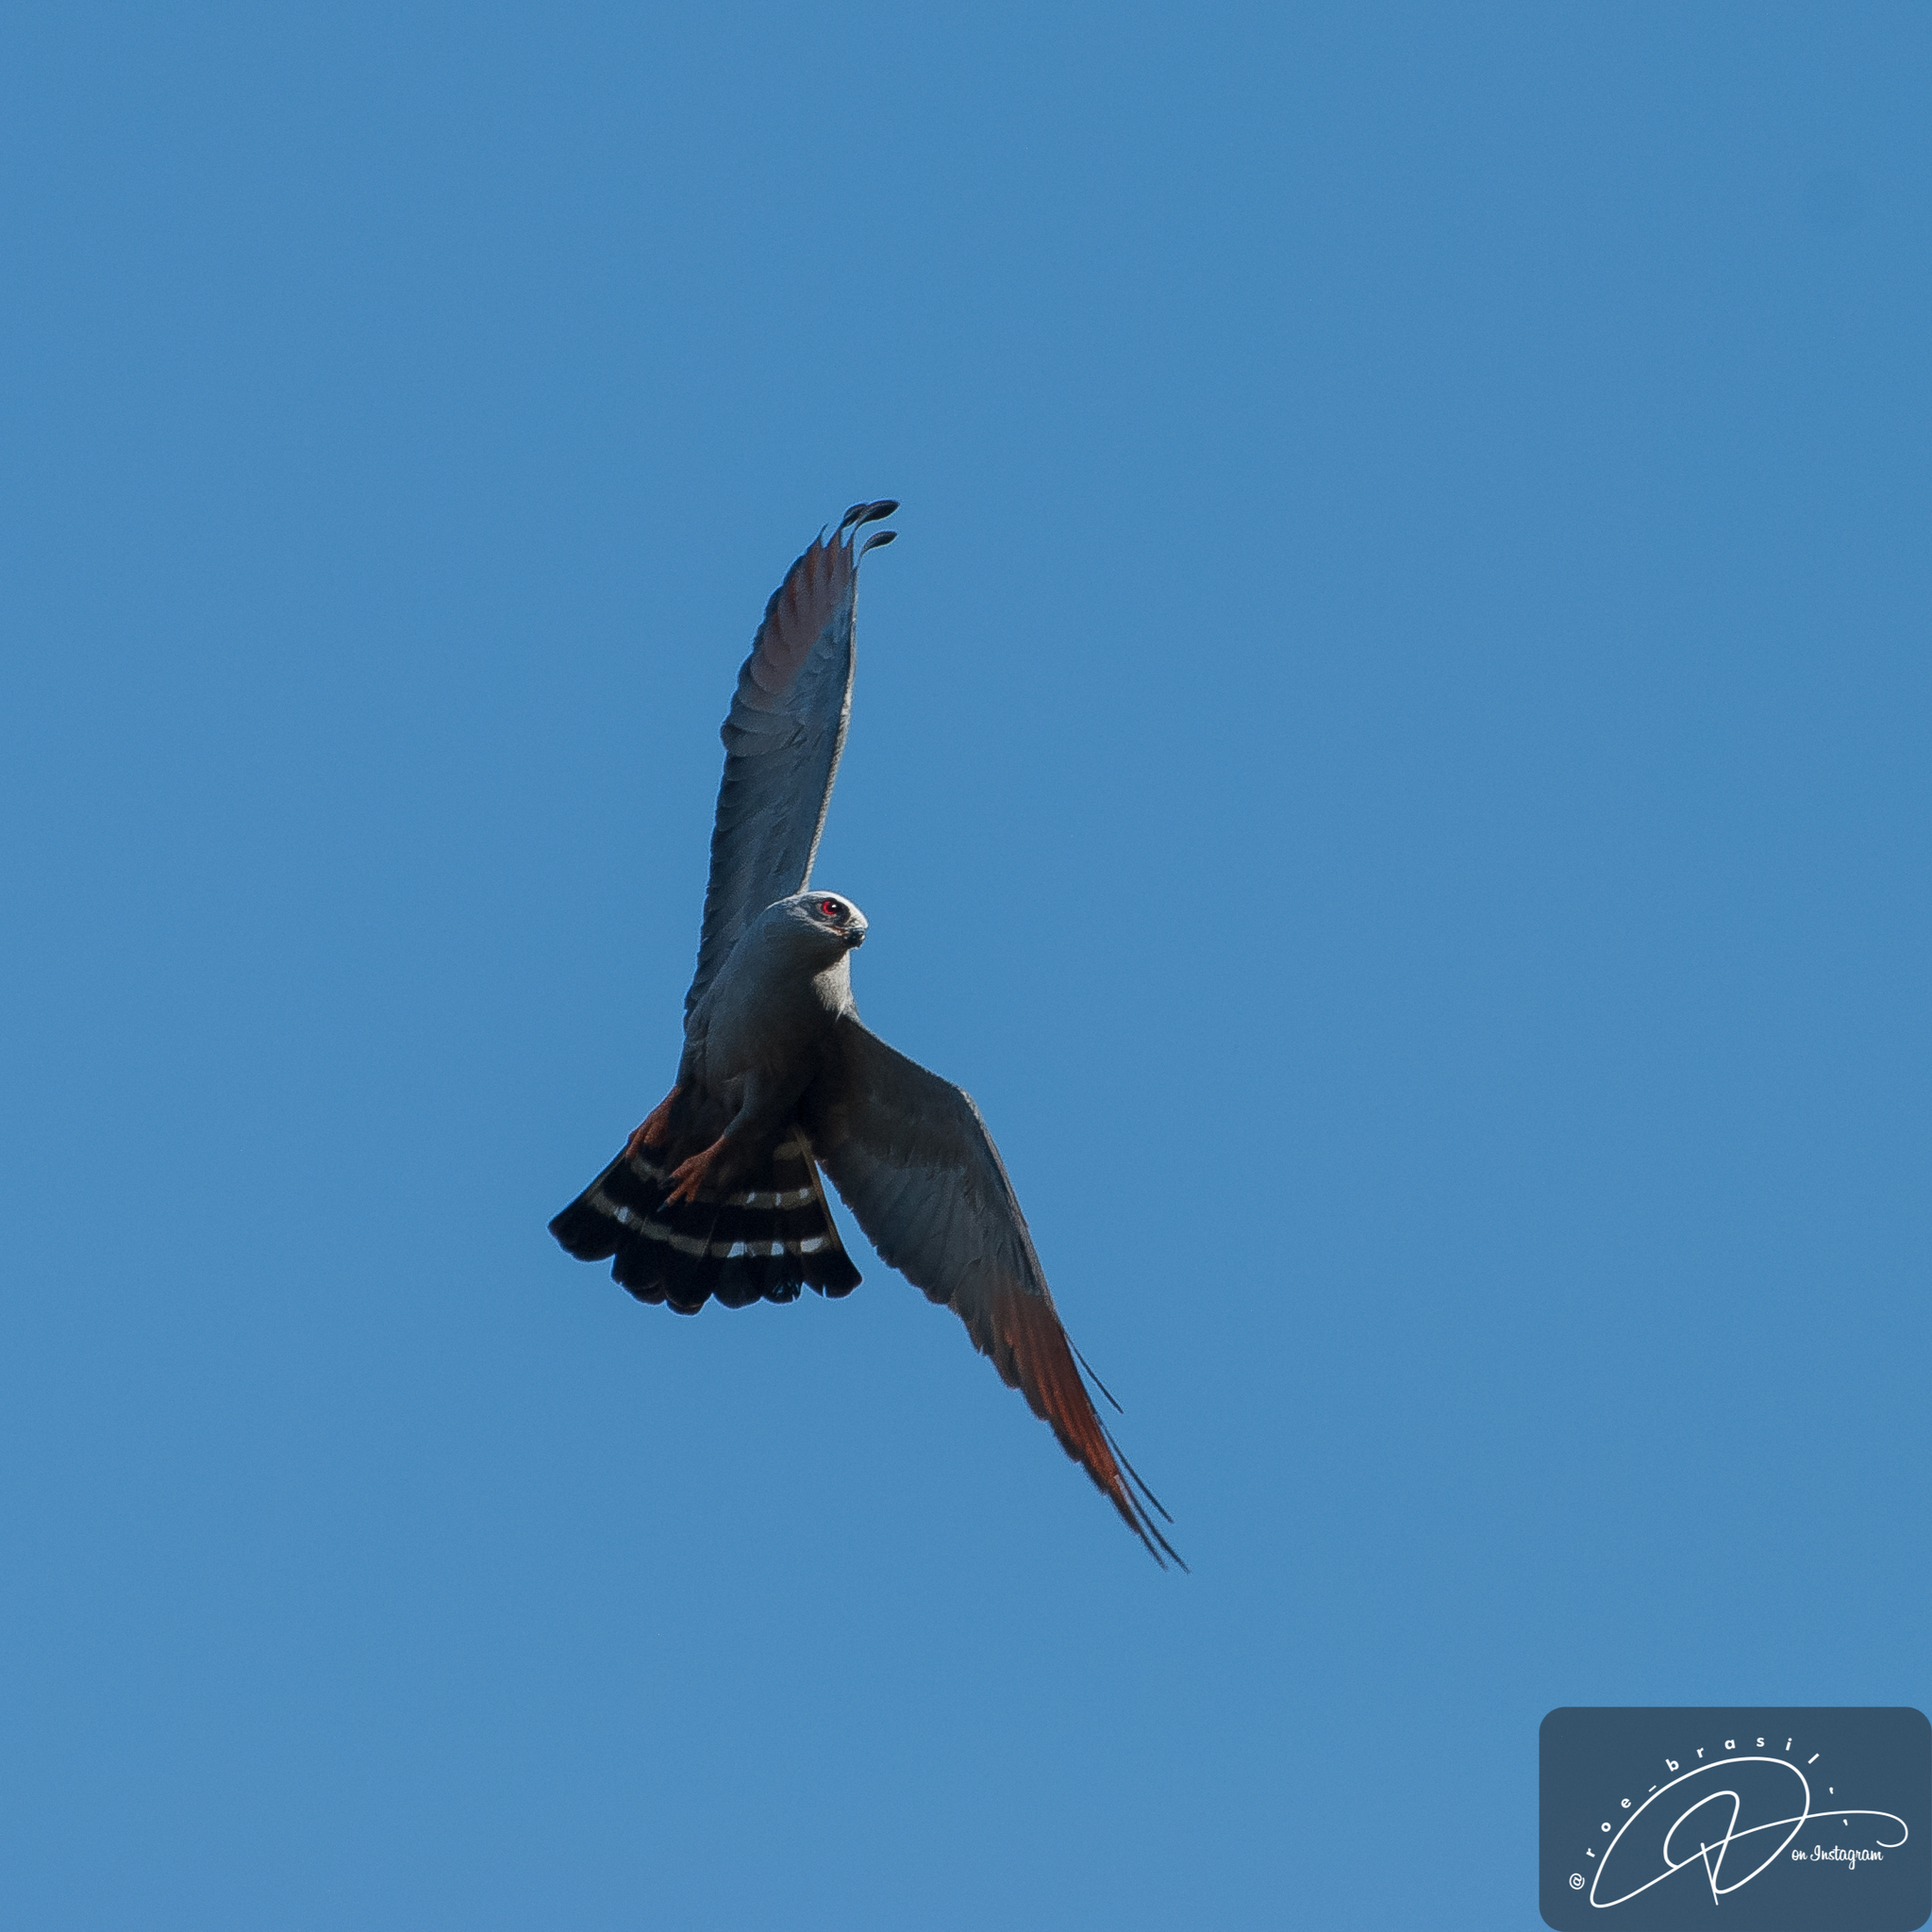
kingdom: Animalia
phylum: Chordata
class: Aves
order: Accipitriformes
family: Accipitridae
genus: Ictinia
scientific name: Ictinia plumbea
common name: Plumbeous kite
